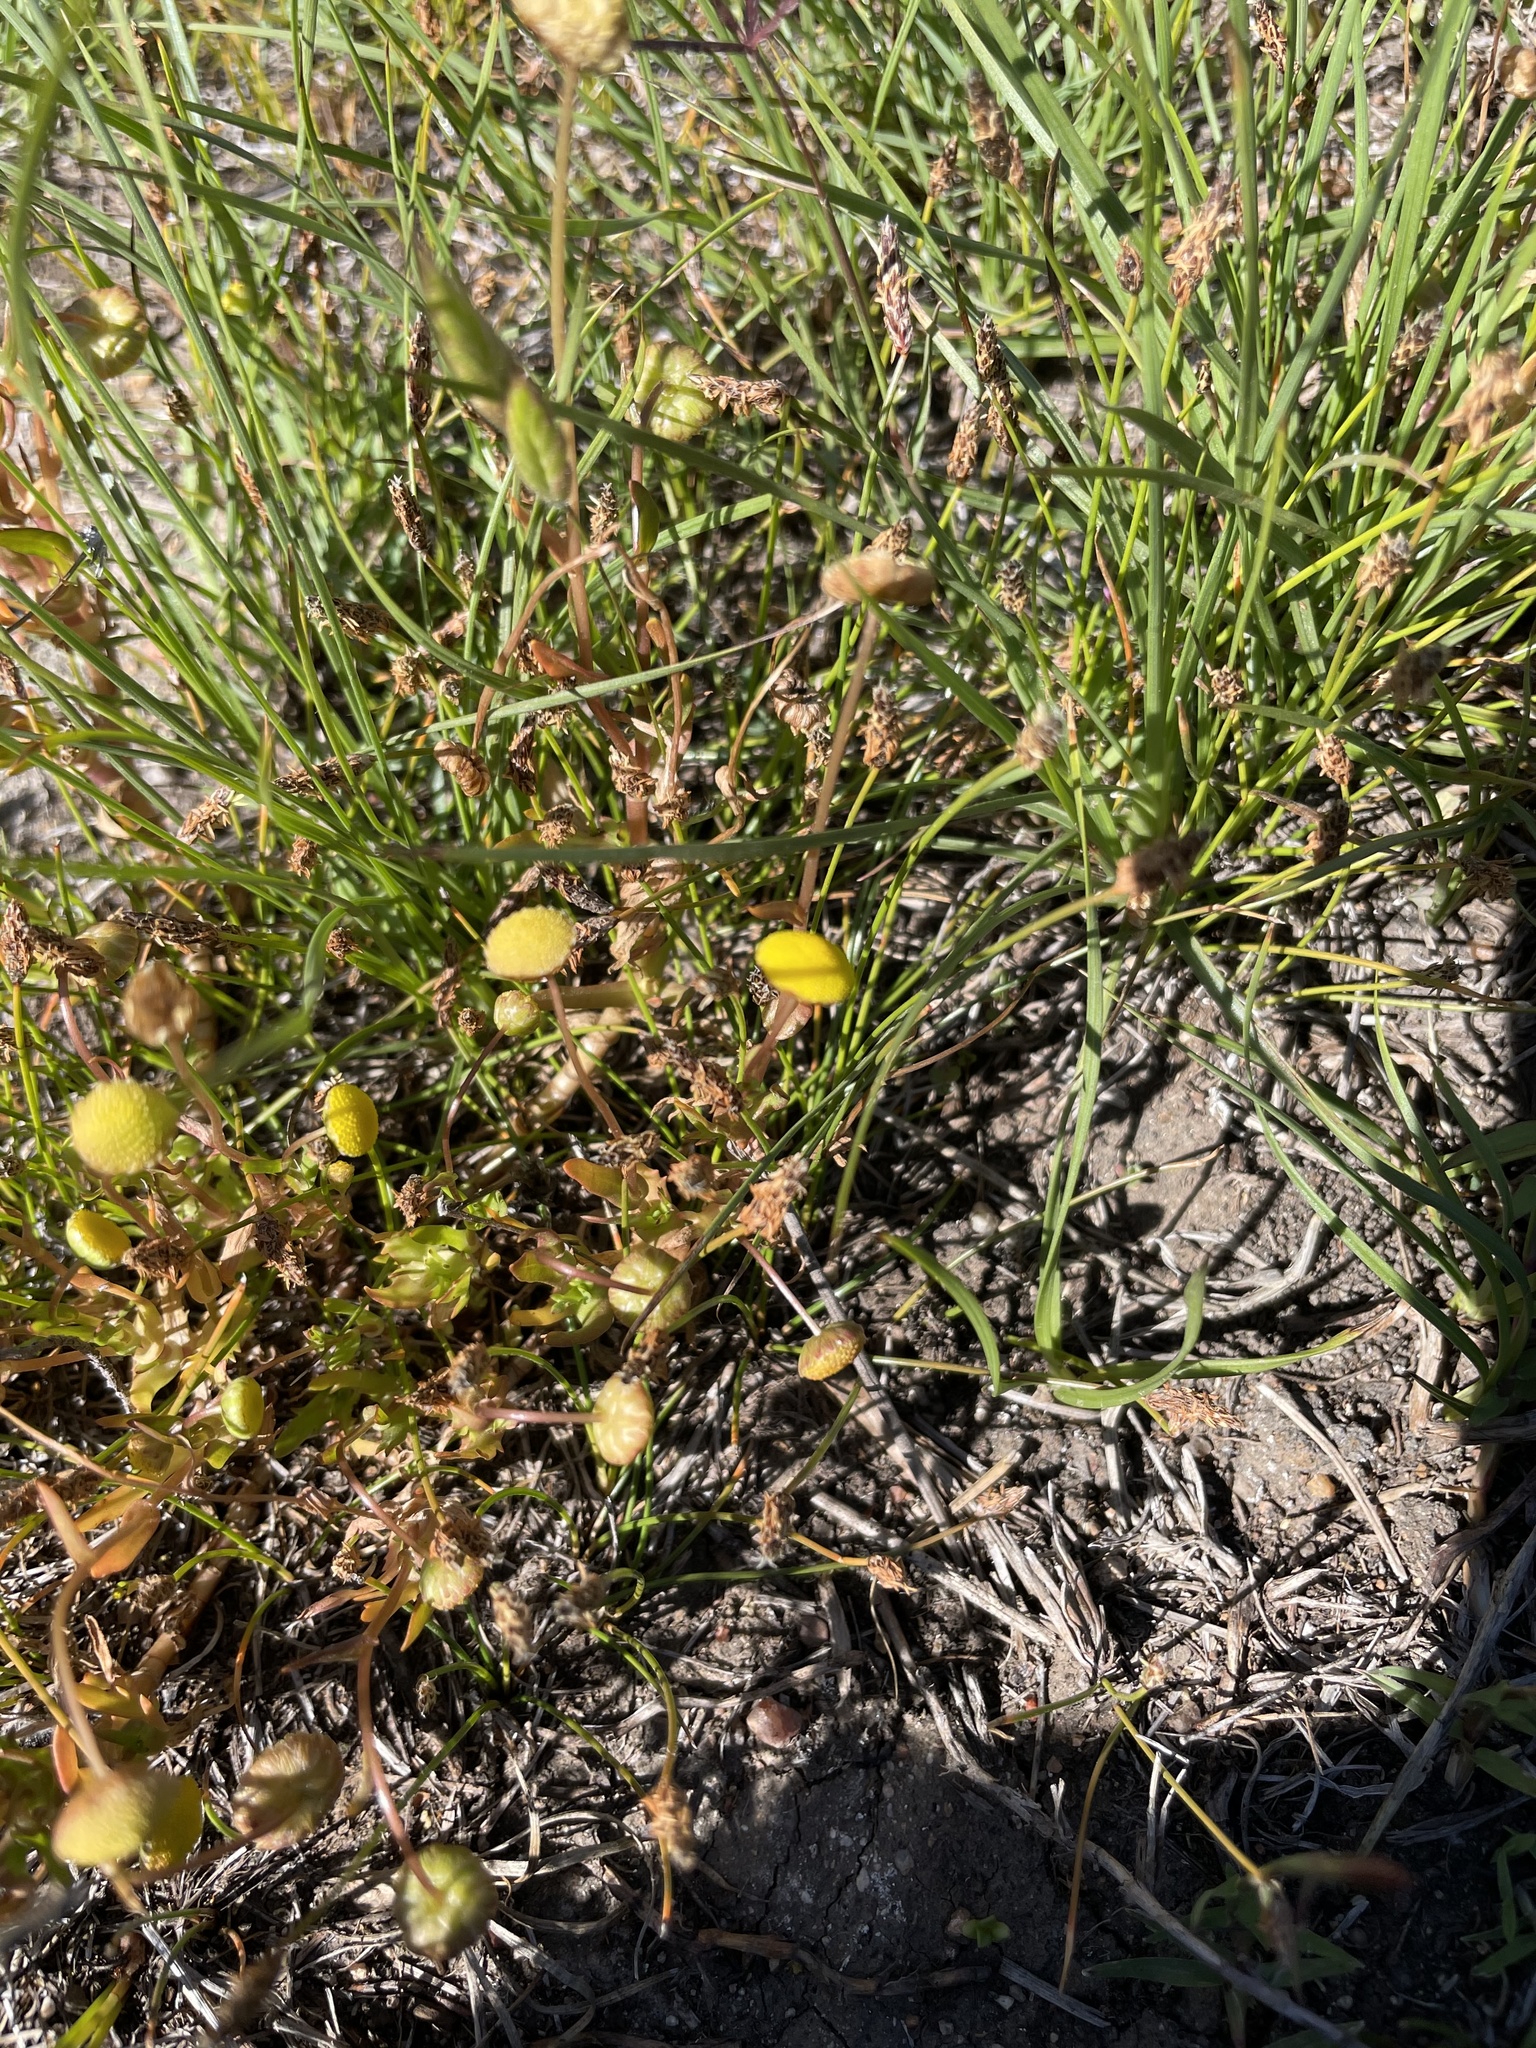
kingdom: Plantae
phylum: Tracheophyta
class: Magnoliopsida
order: Asterales
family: Asteraceae
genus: Cotula
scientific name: Cotula coronopifolia
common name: Buttonweed
